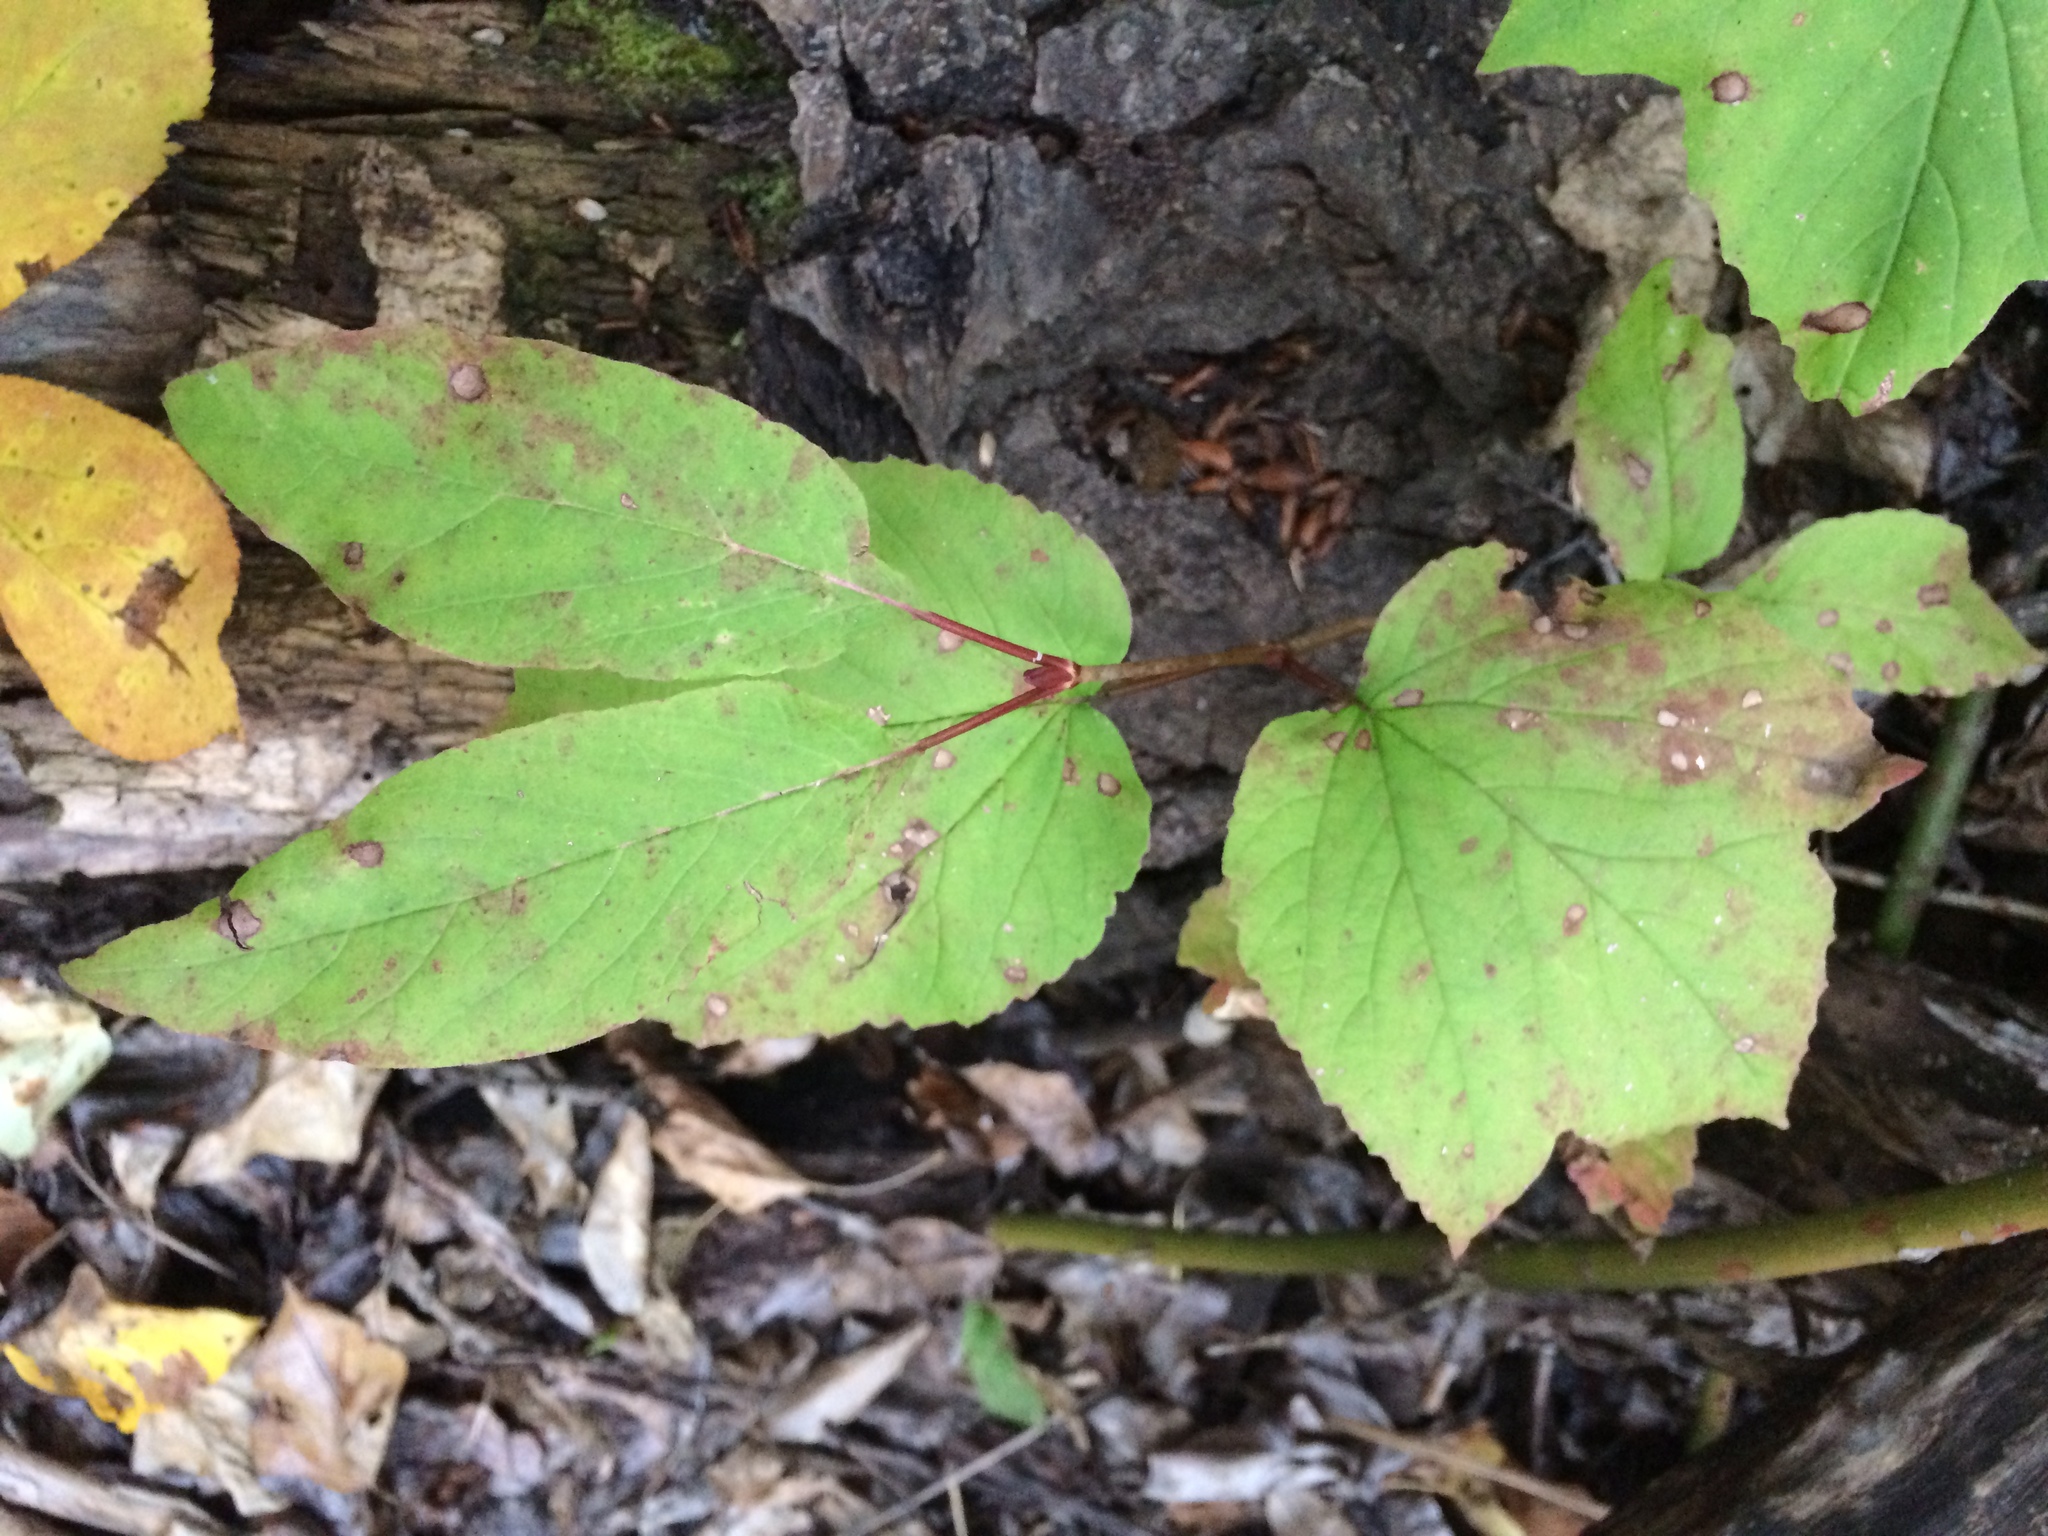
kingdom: Plantae
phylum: Tracheophyta
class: Magnoliopsida
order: Dipsacales
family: Viburnaceae
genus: Viburnum
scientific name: Viburnum edule
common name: Mooseberry
